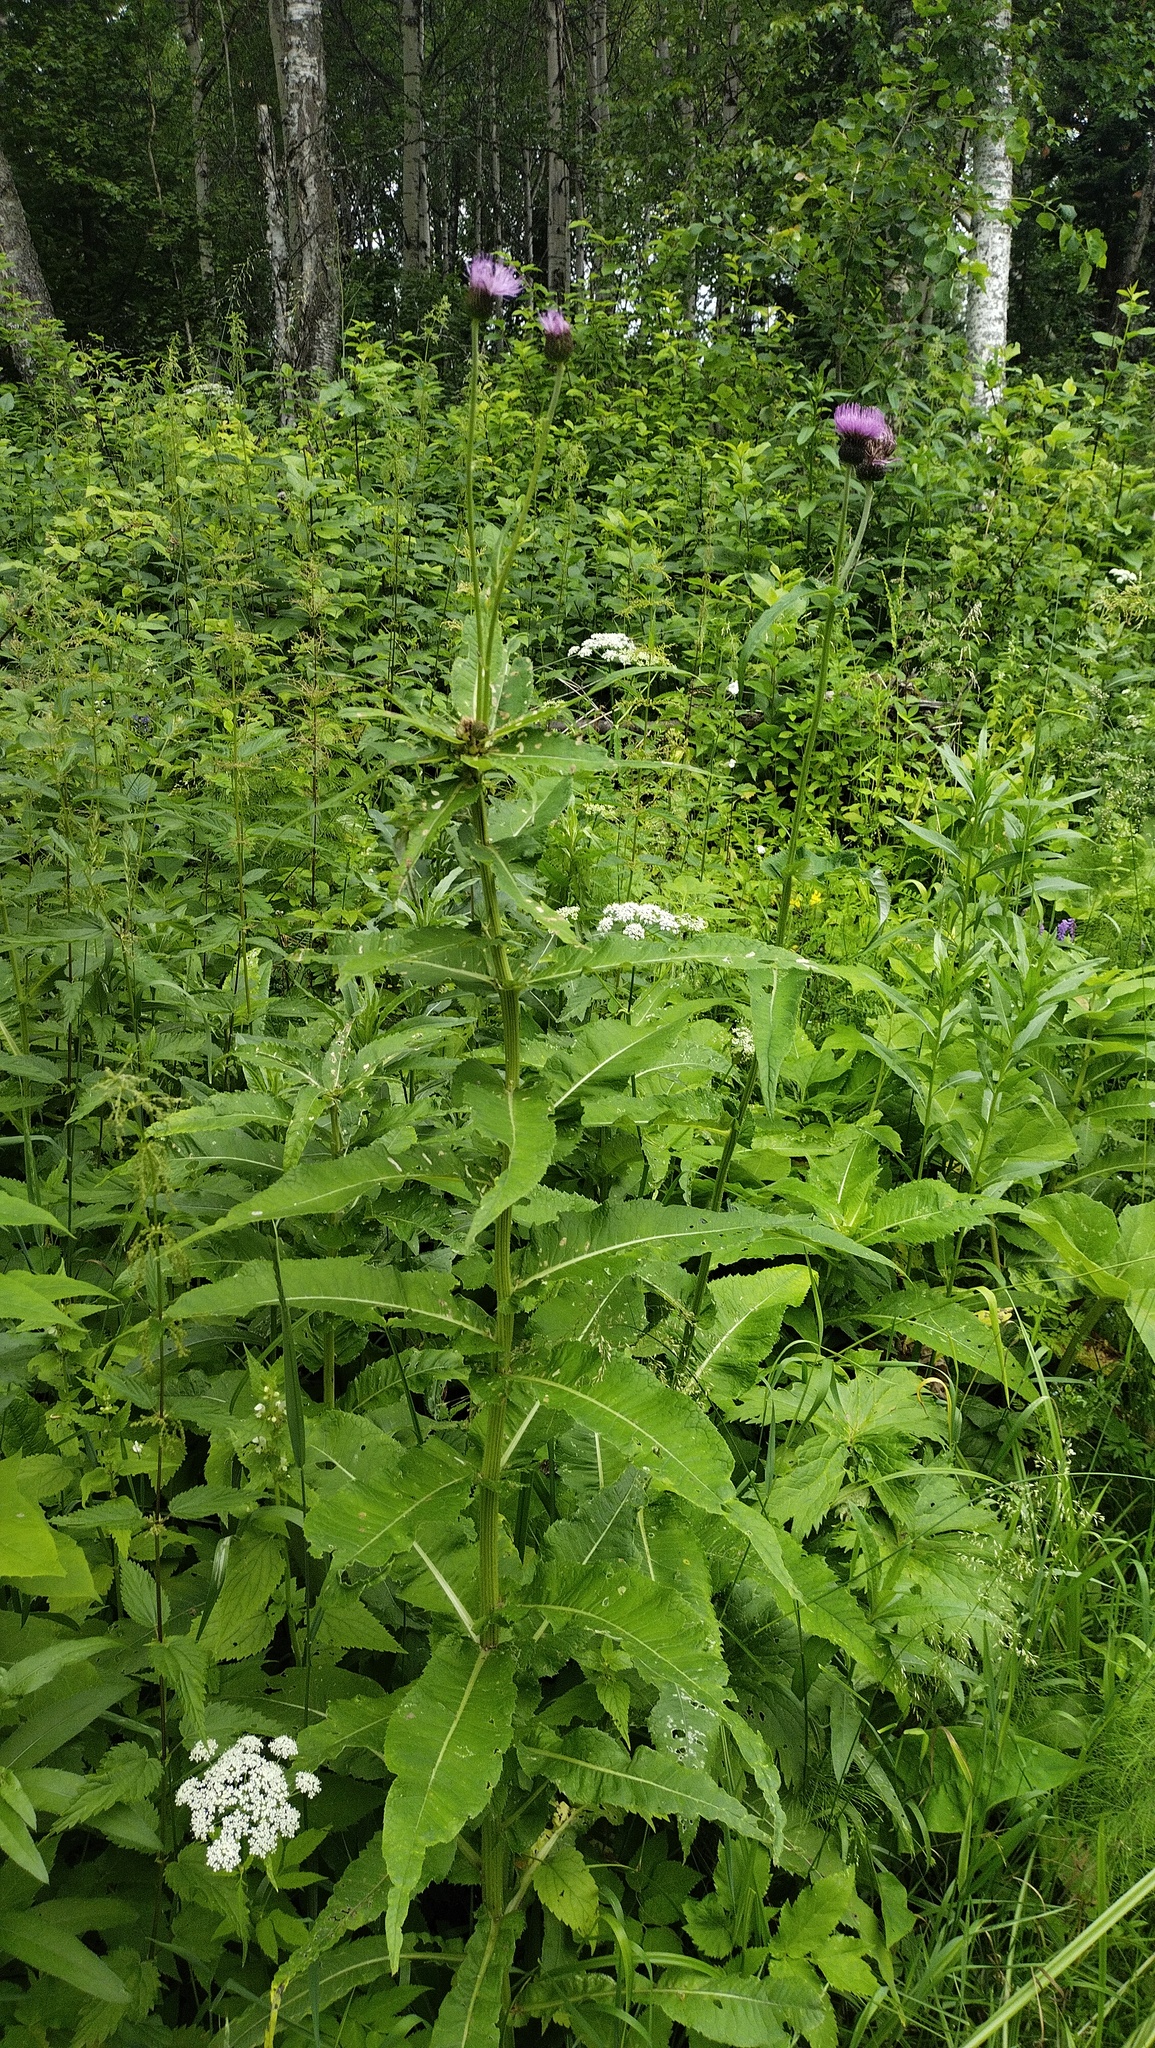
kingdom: Plantae
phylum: Tracheophyta
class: Magnoliopsida
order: Asterales
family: Asteraceae
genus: Cirsium
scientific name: Cirsium helenioides
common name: Melancholy thistle
